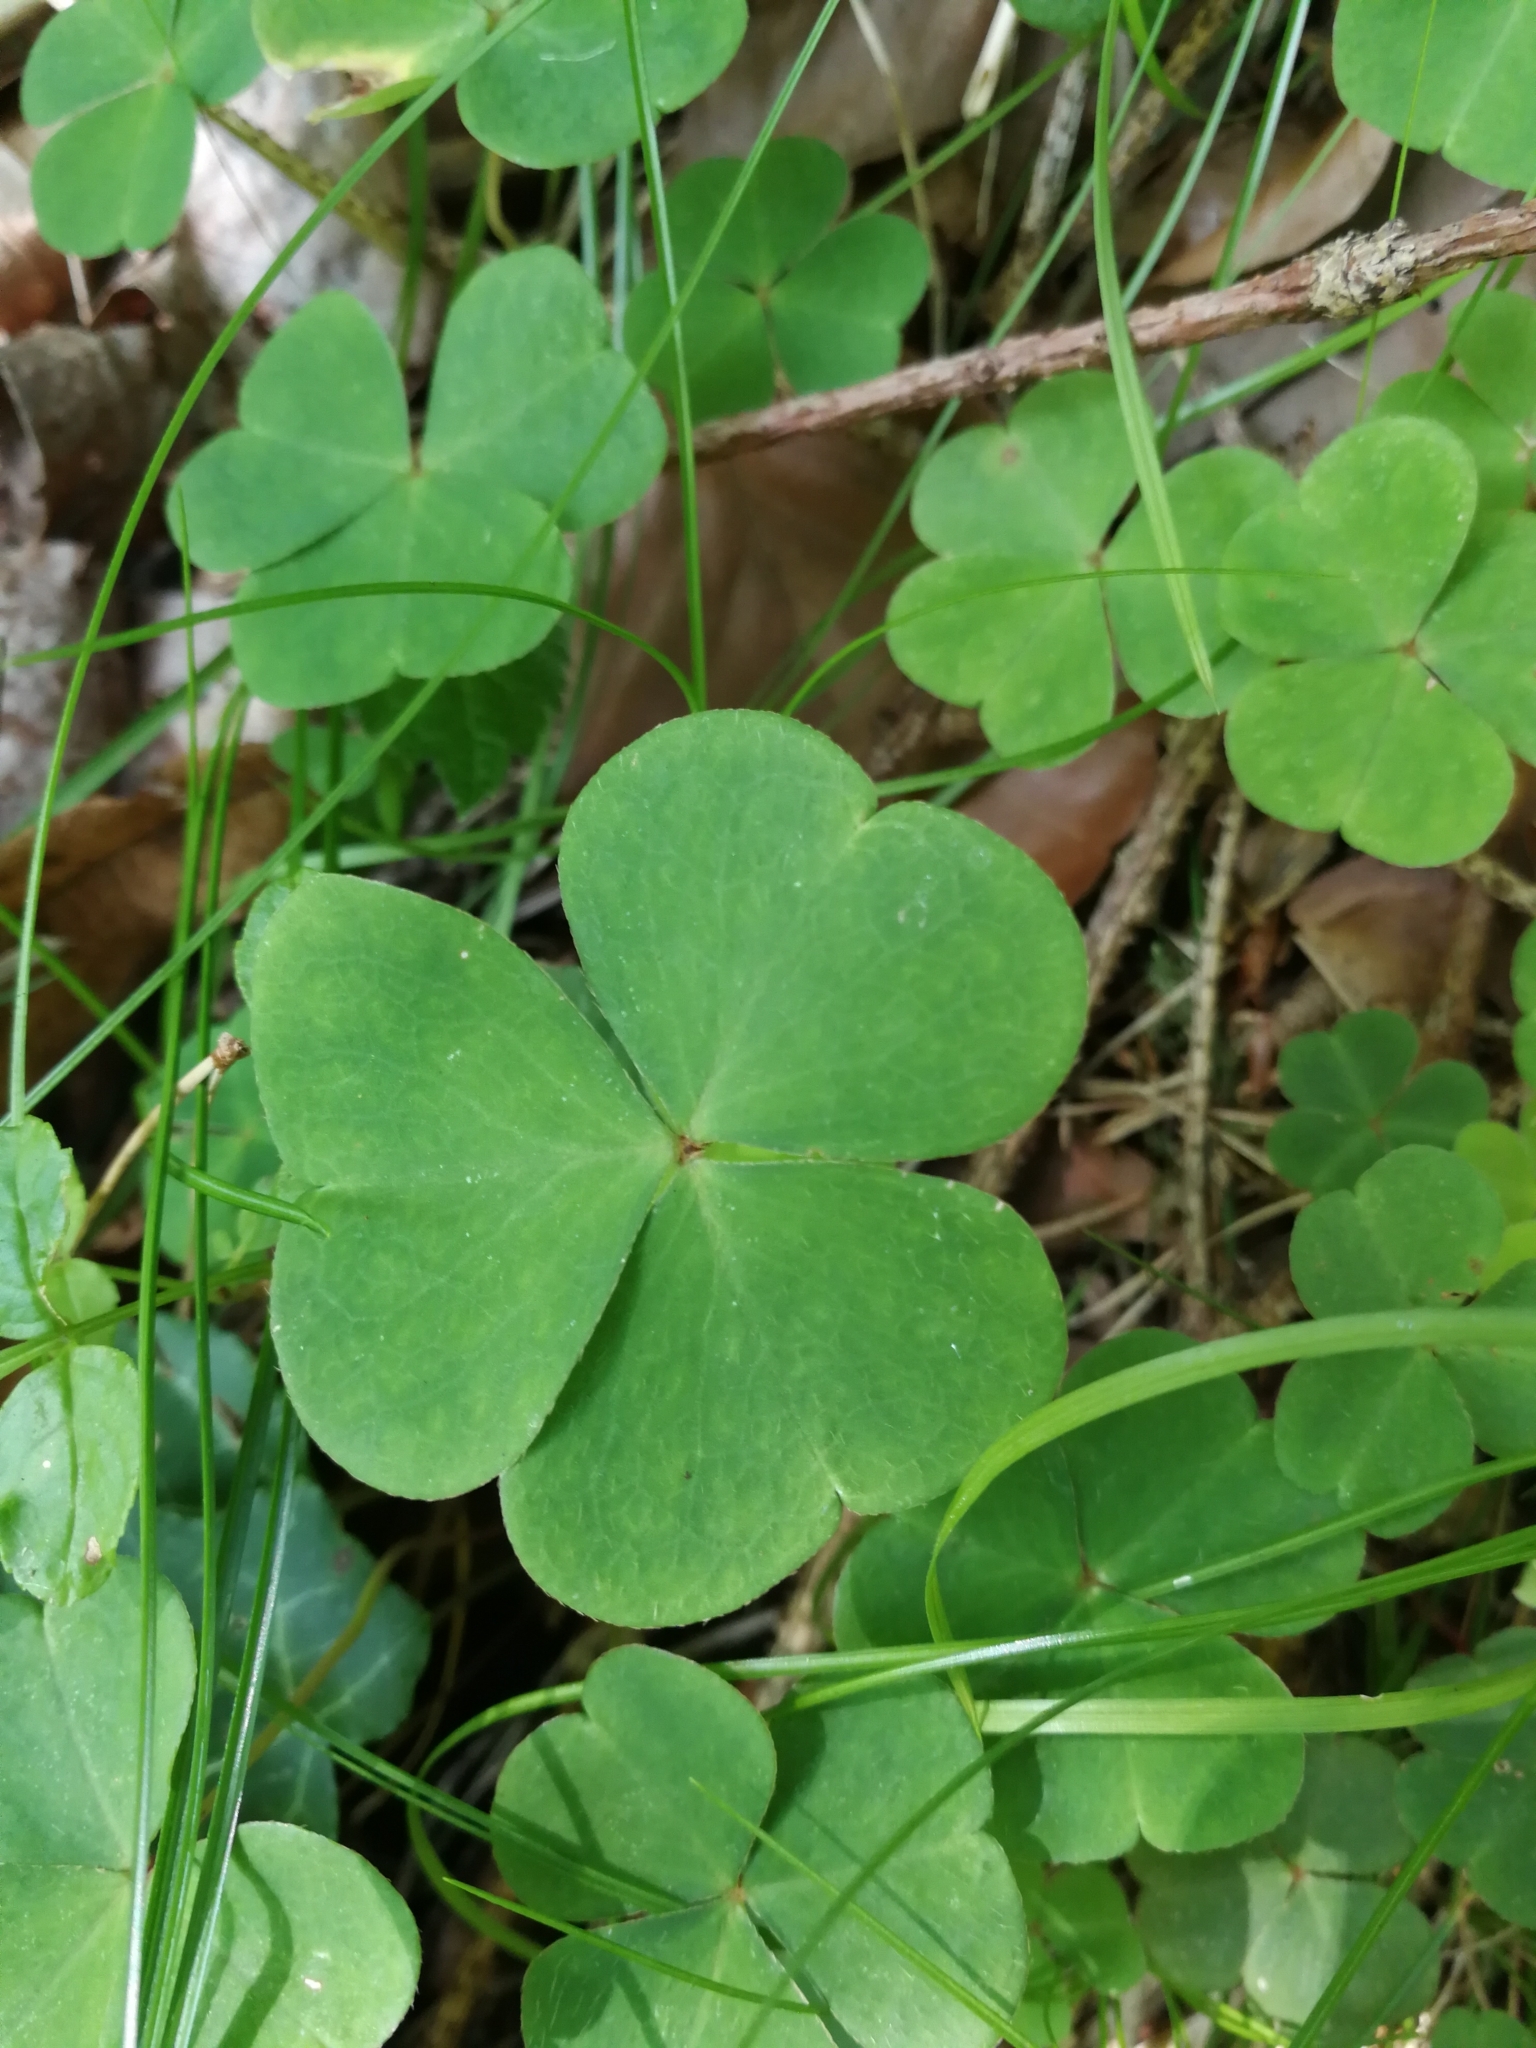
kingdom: Plantae
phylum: Tracheophyta
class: Magnoliopsida
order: Oxalidales
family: Oxalidaceae
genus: Oxalis
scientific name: Oxalis acetosella
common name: Wood-sorrel
